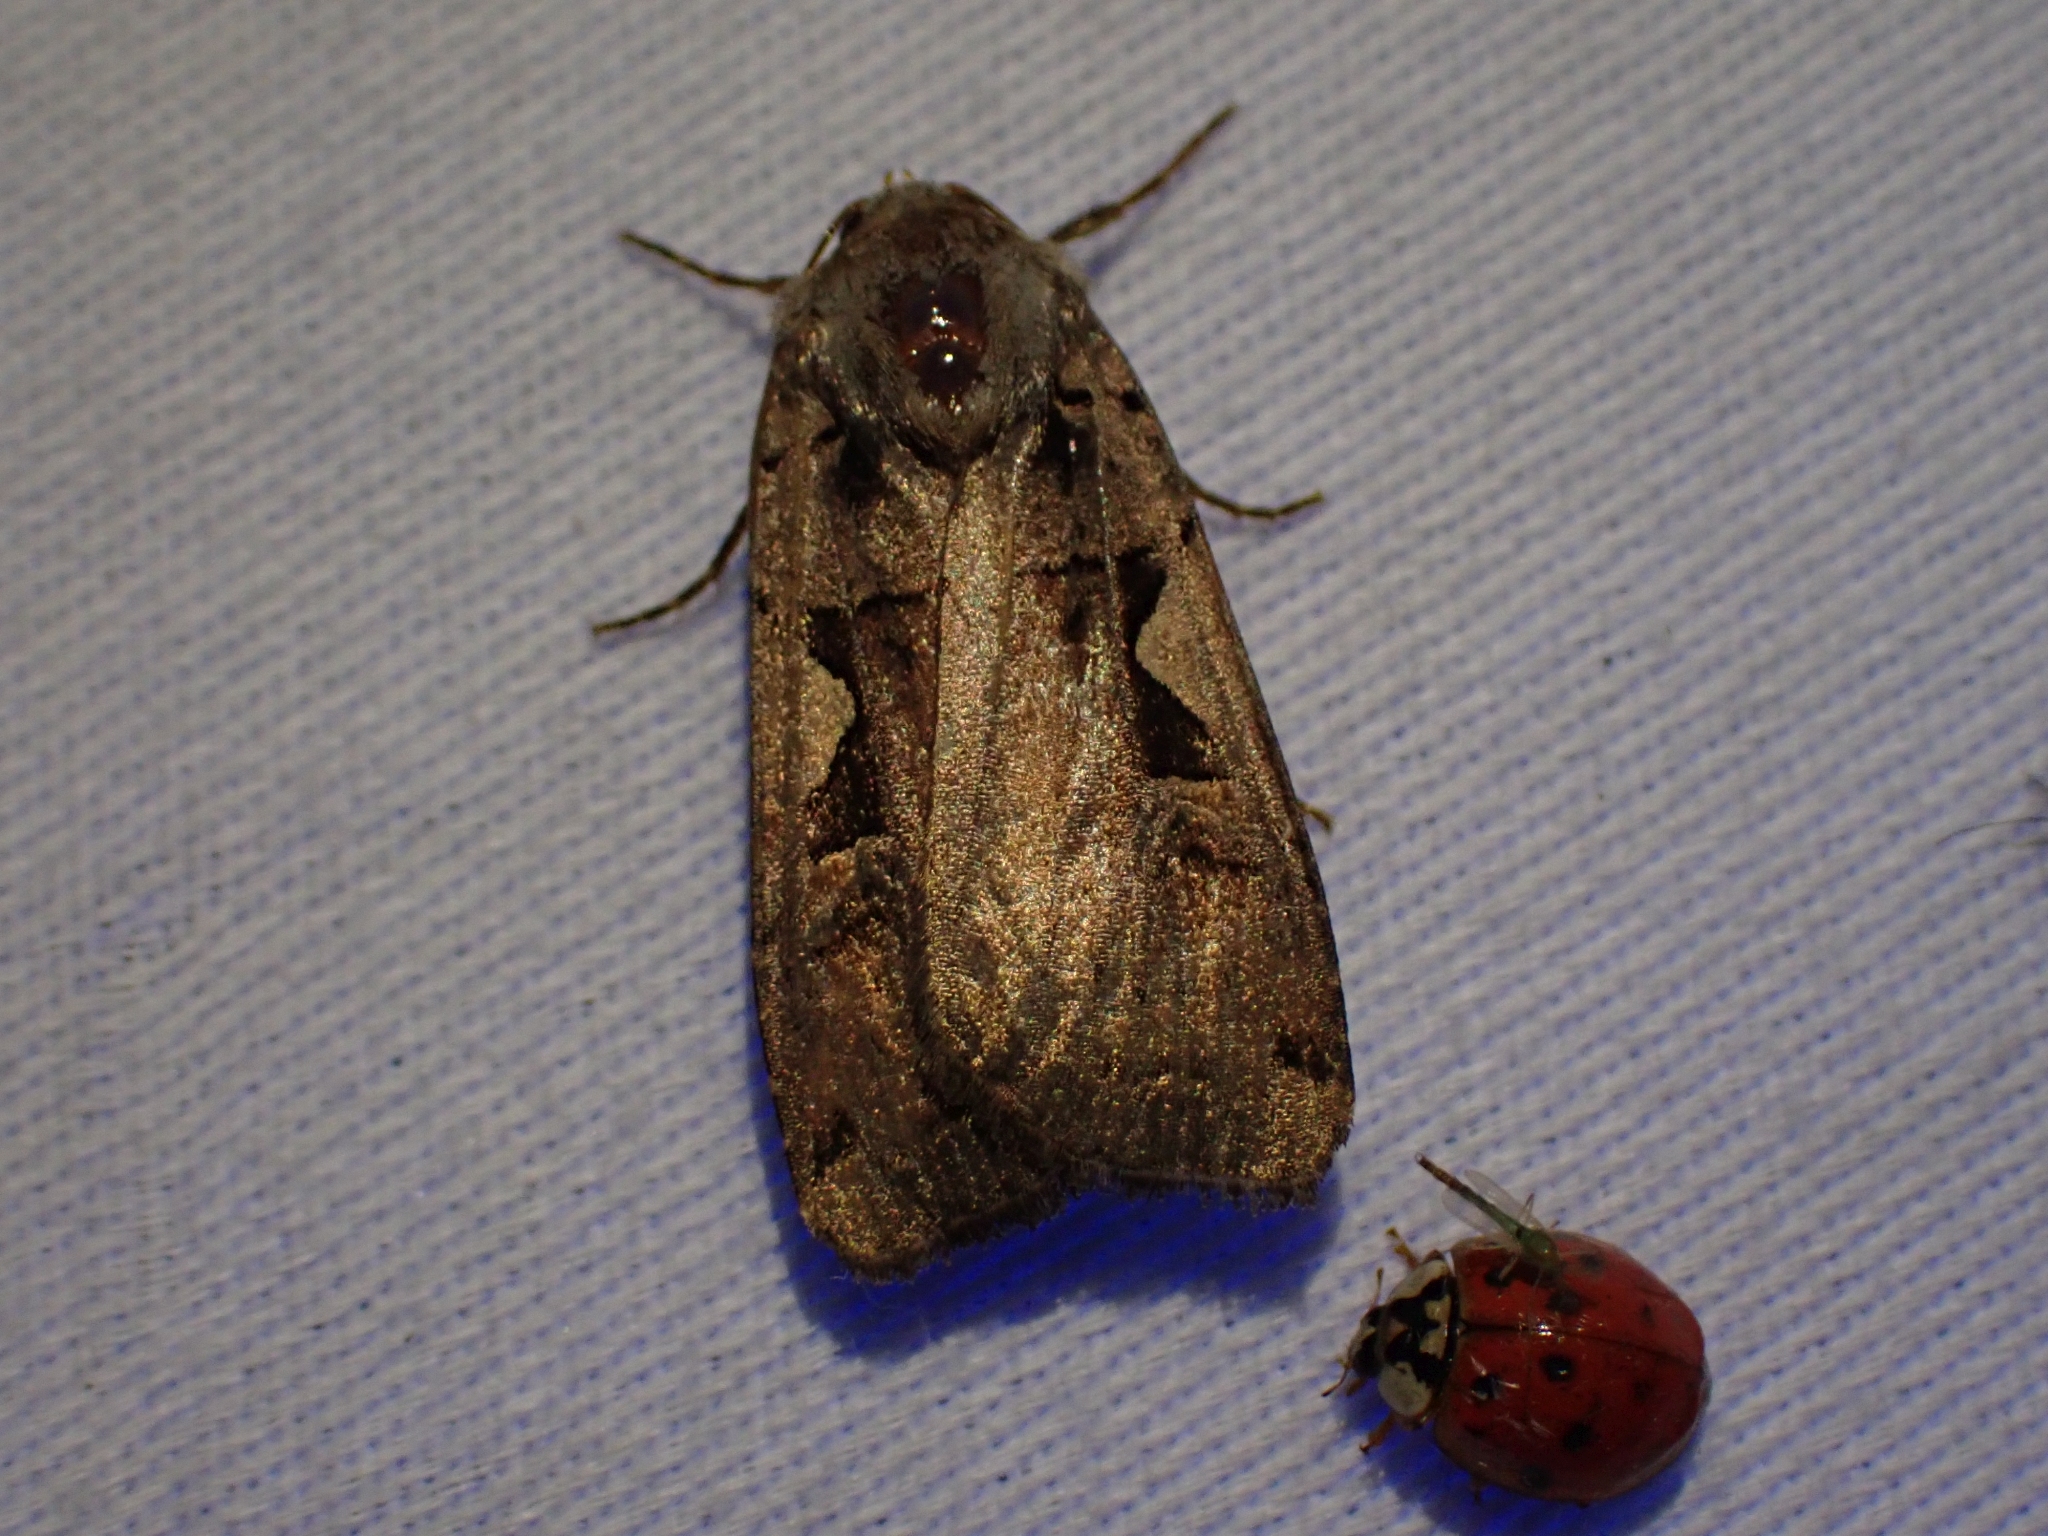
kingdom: Animalia
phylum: Arthropoda
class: Insecta
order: Lepidoptera
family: Noctuidae
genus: Xestia
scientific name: Xestia c-nigrum
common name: Setaceous hebrew character
